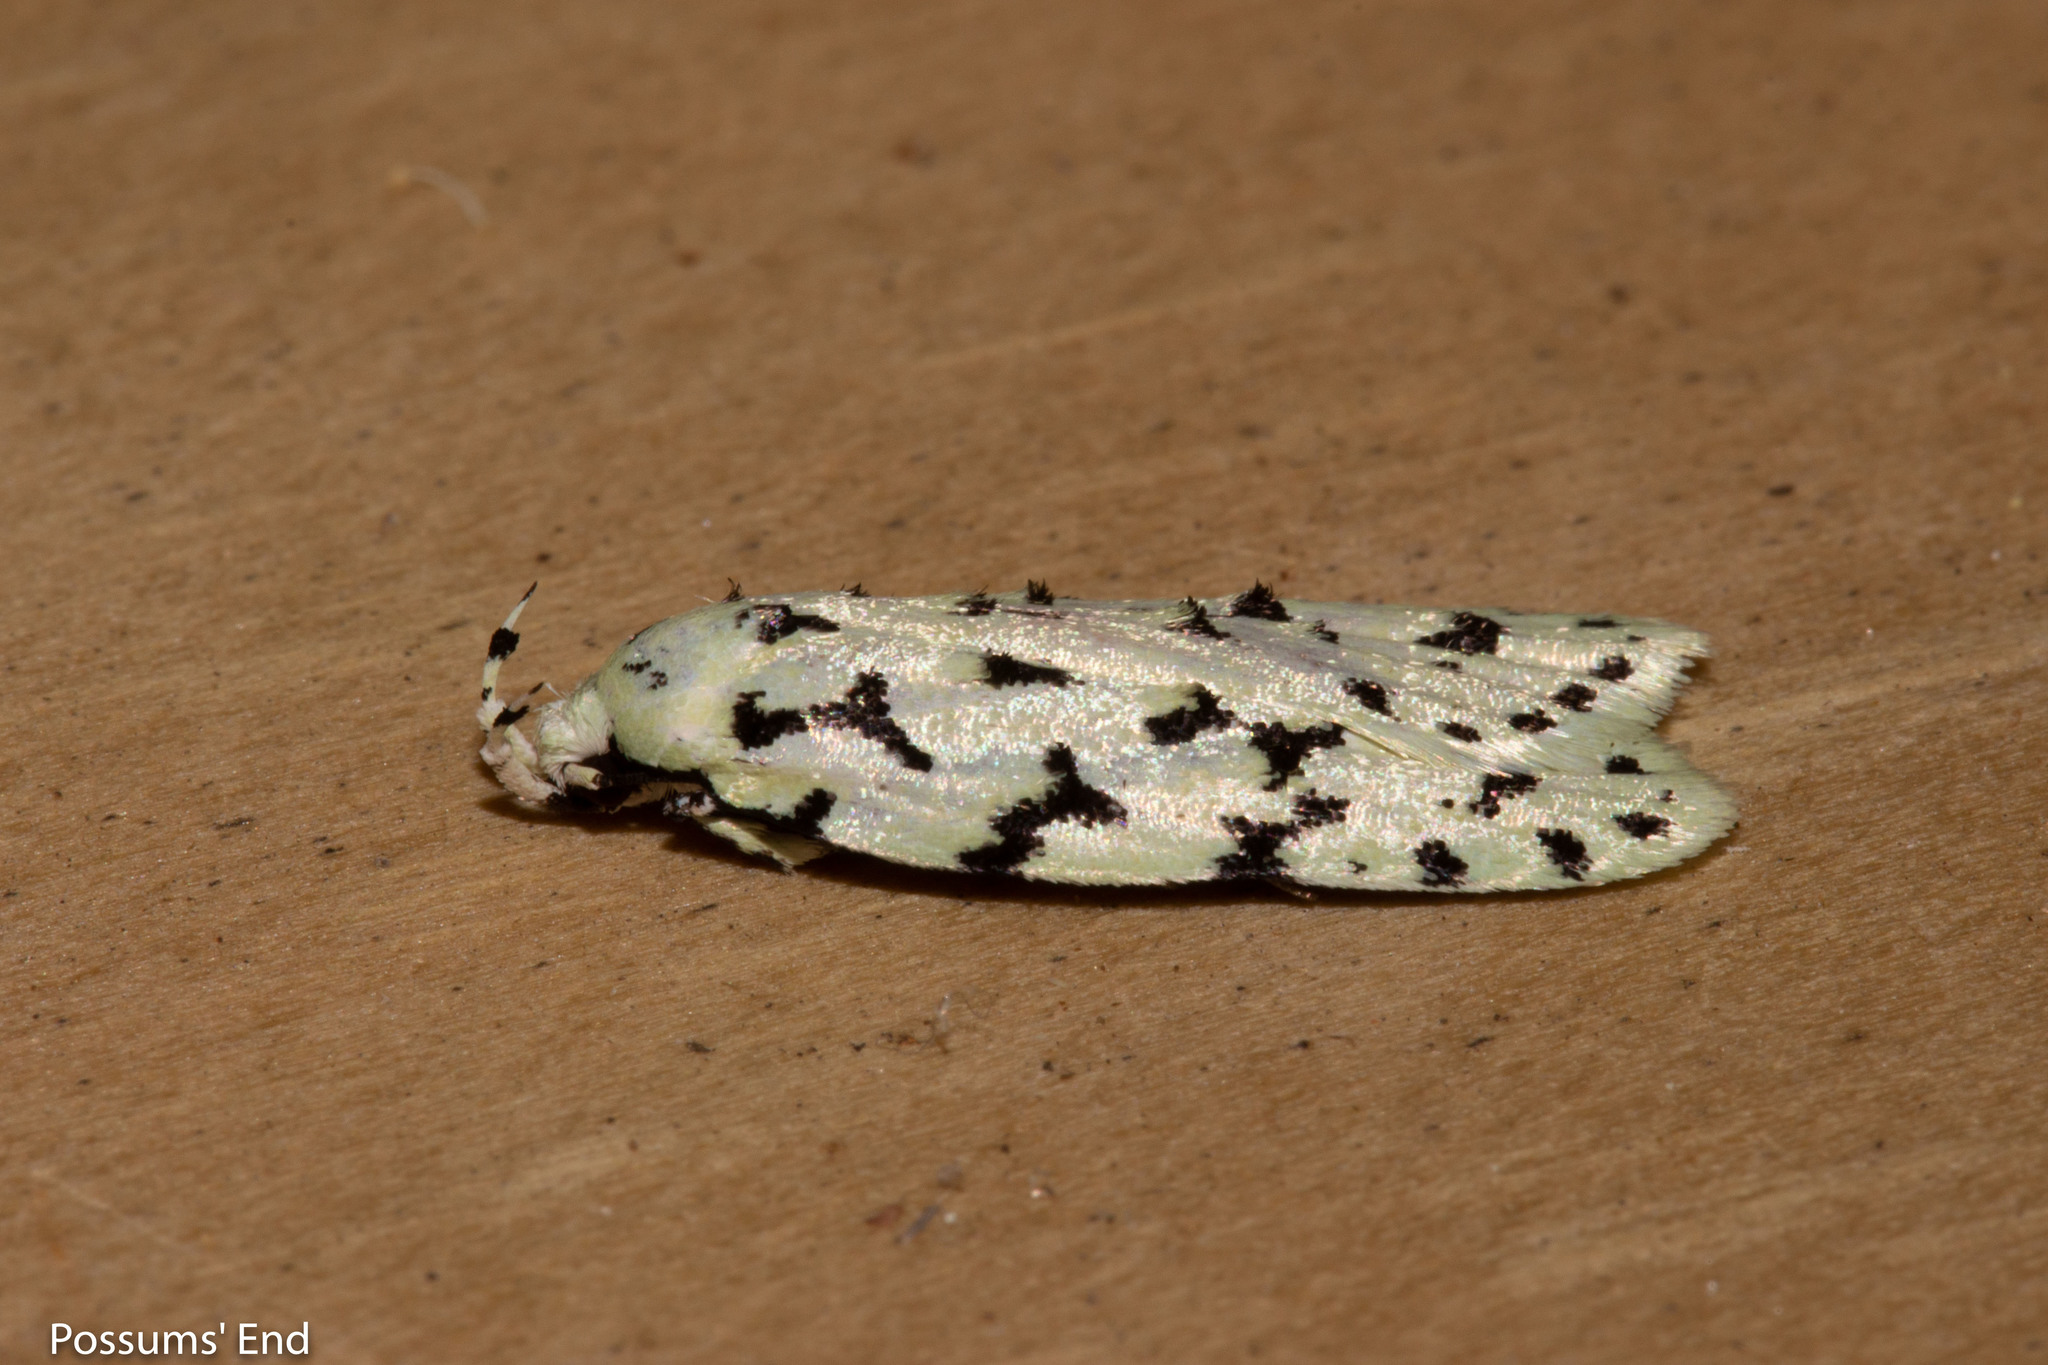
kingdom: Animalia
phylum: Arthropoda
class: Insecta
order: Lepidoptera
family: Oecophoridae
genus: Izatha
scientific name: Izatha huttoni
